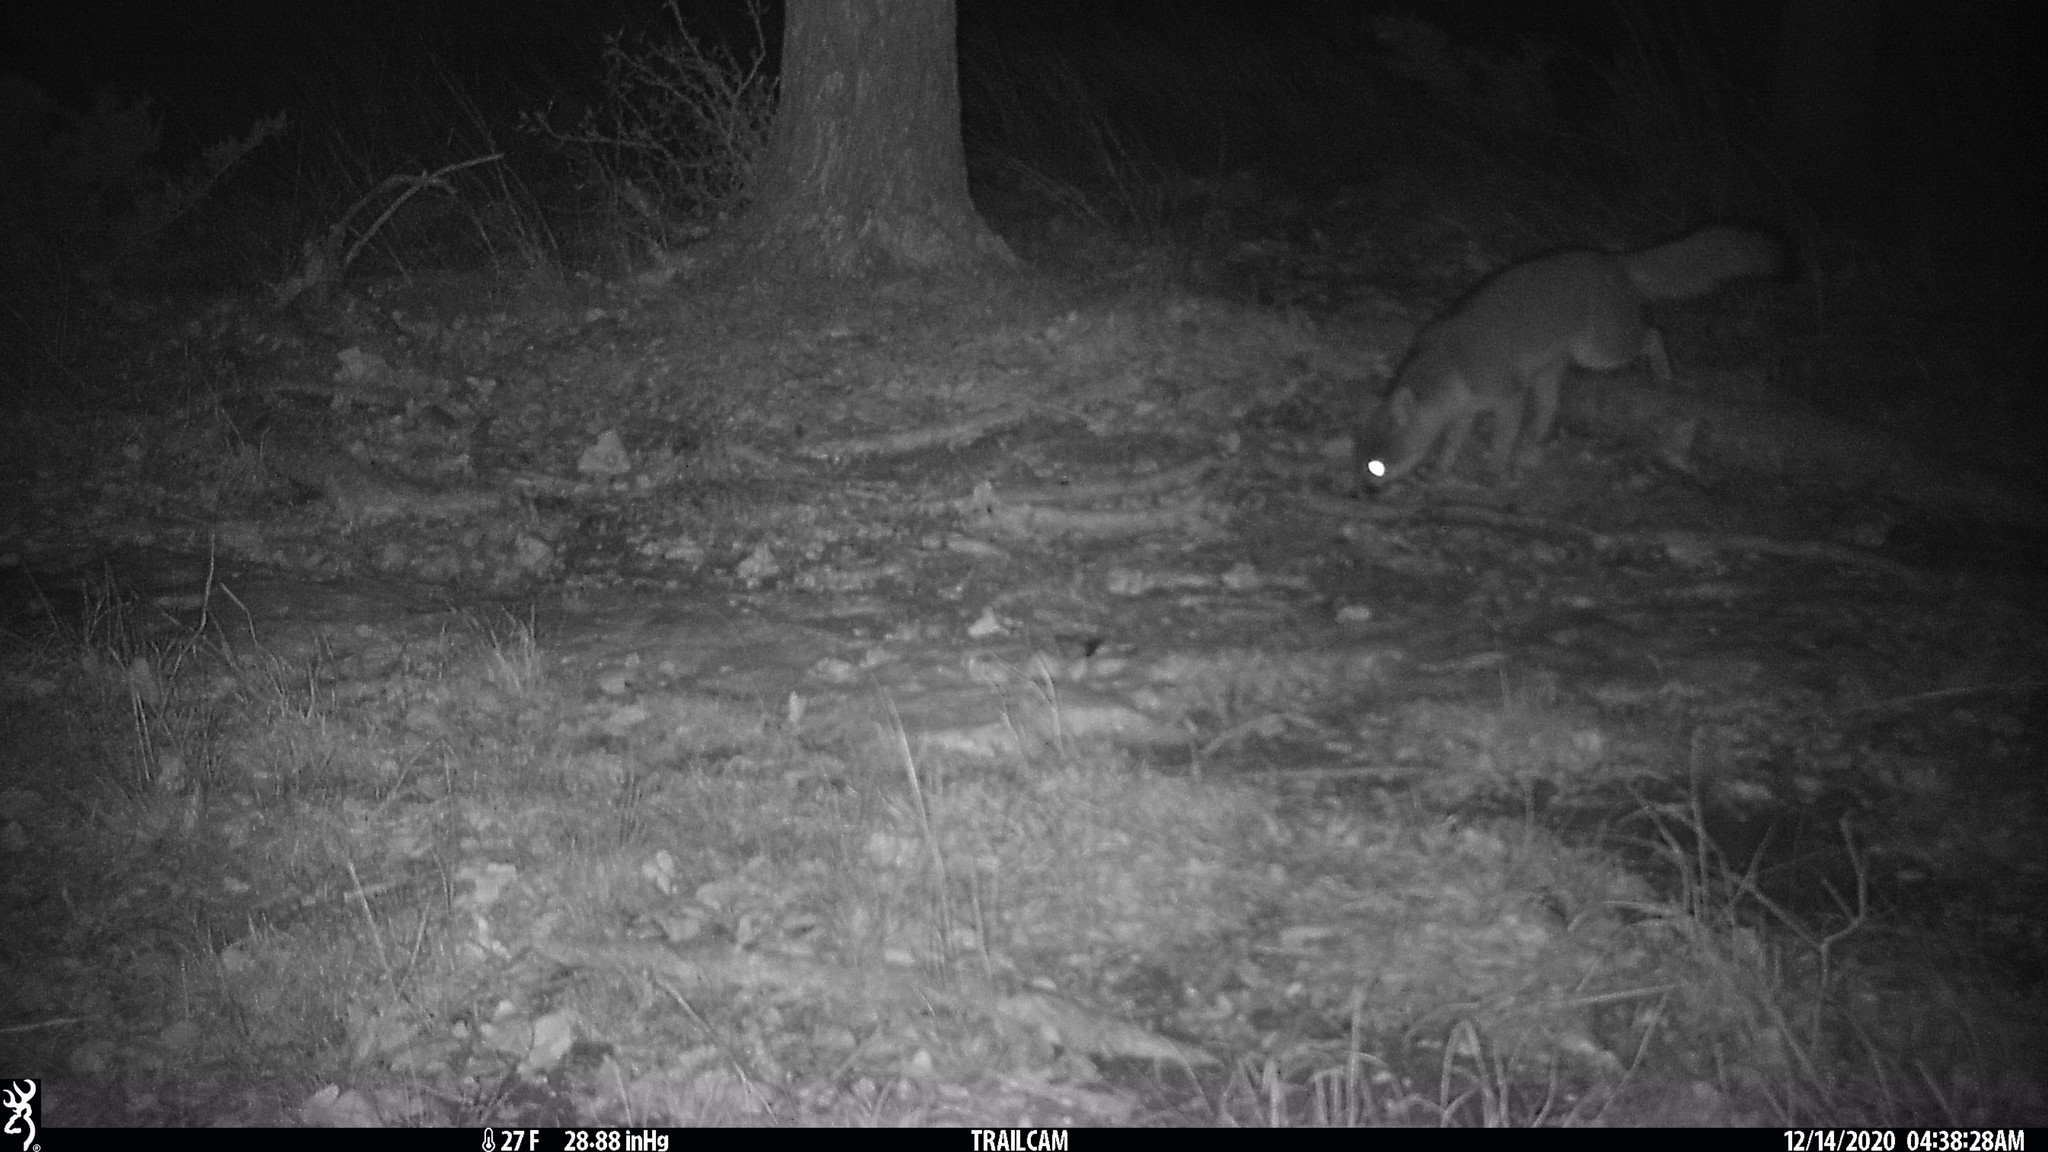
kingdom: Animalia
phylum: Chordata
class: Mammalia
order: Carnivora
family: Canidae
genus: Urocyon
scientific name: Urocyon cinereoargenteus
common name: Gray fox
